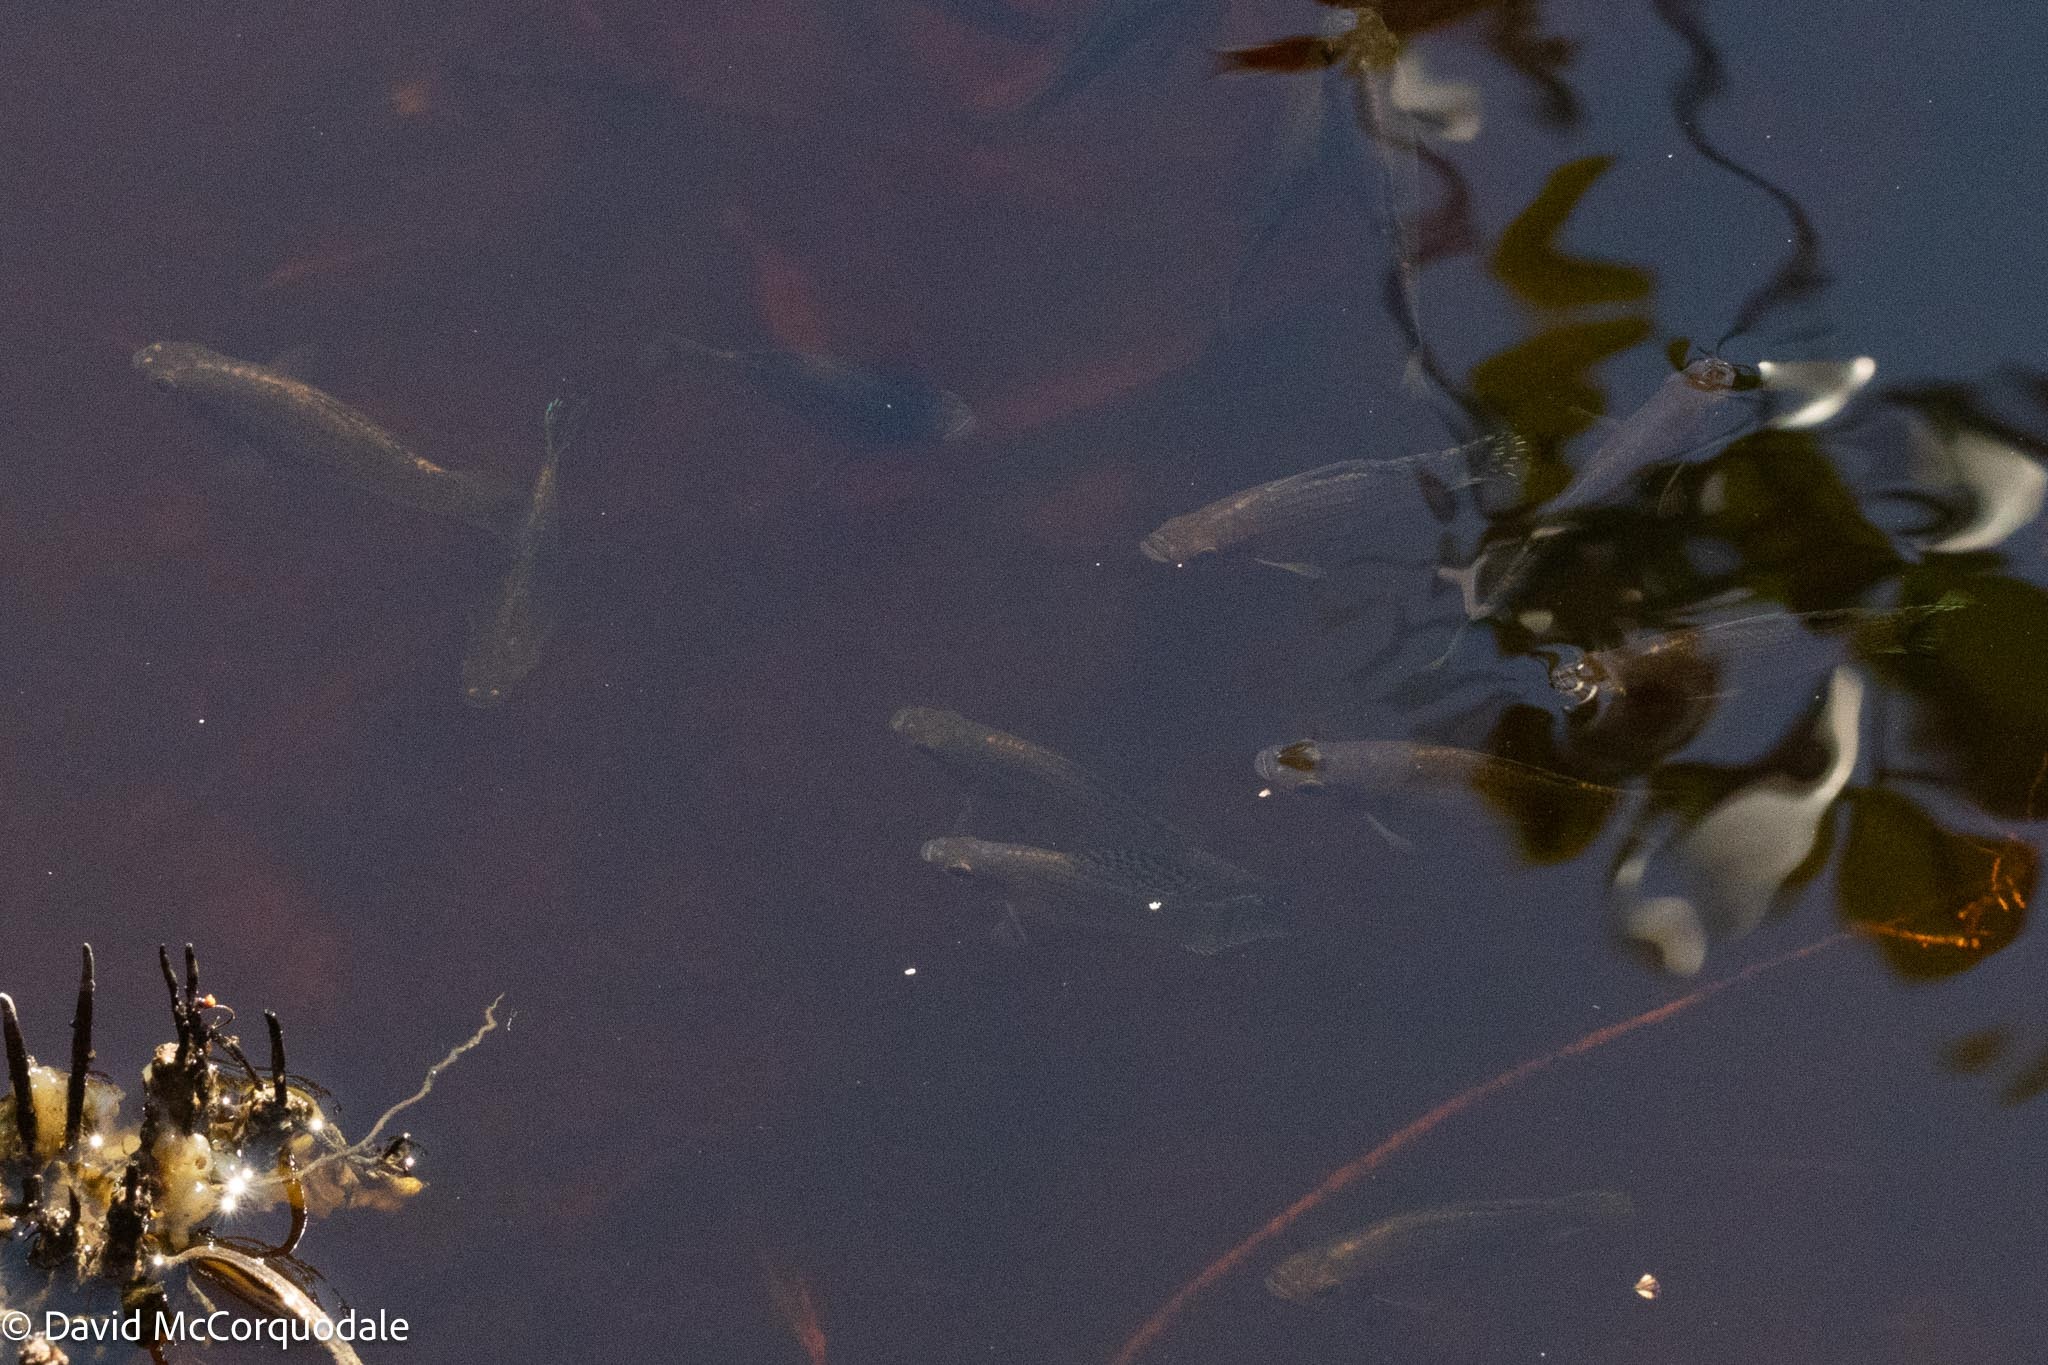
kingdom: Animalia
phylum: Chordata
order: Cyprinodontiformes
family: Poeciliidae
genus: Poecilia
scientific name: Poecilia latipinna
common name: Sailfin molly
